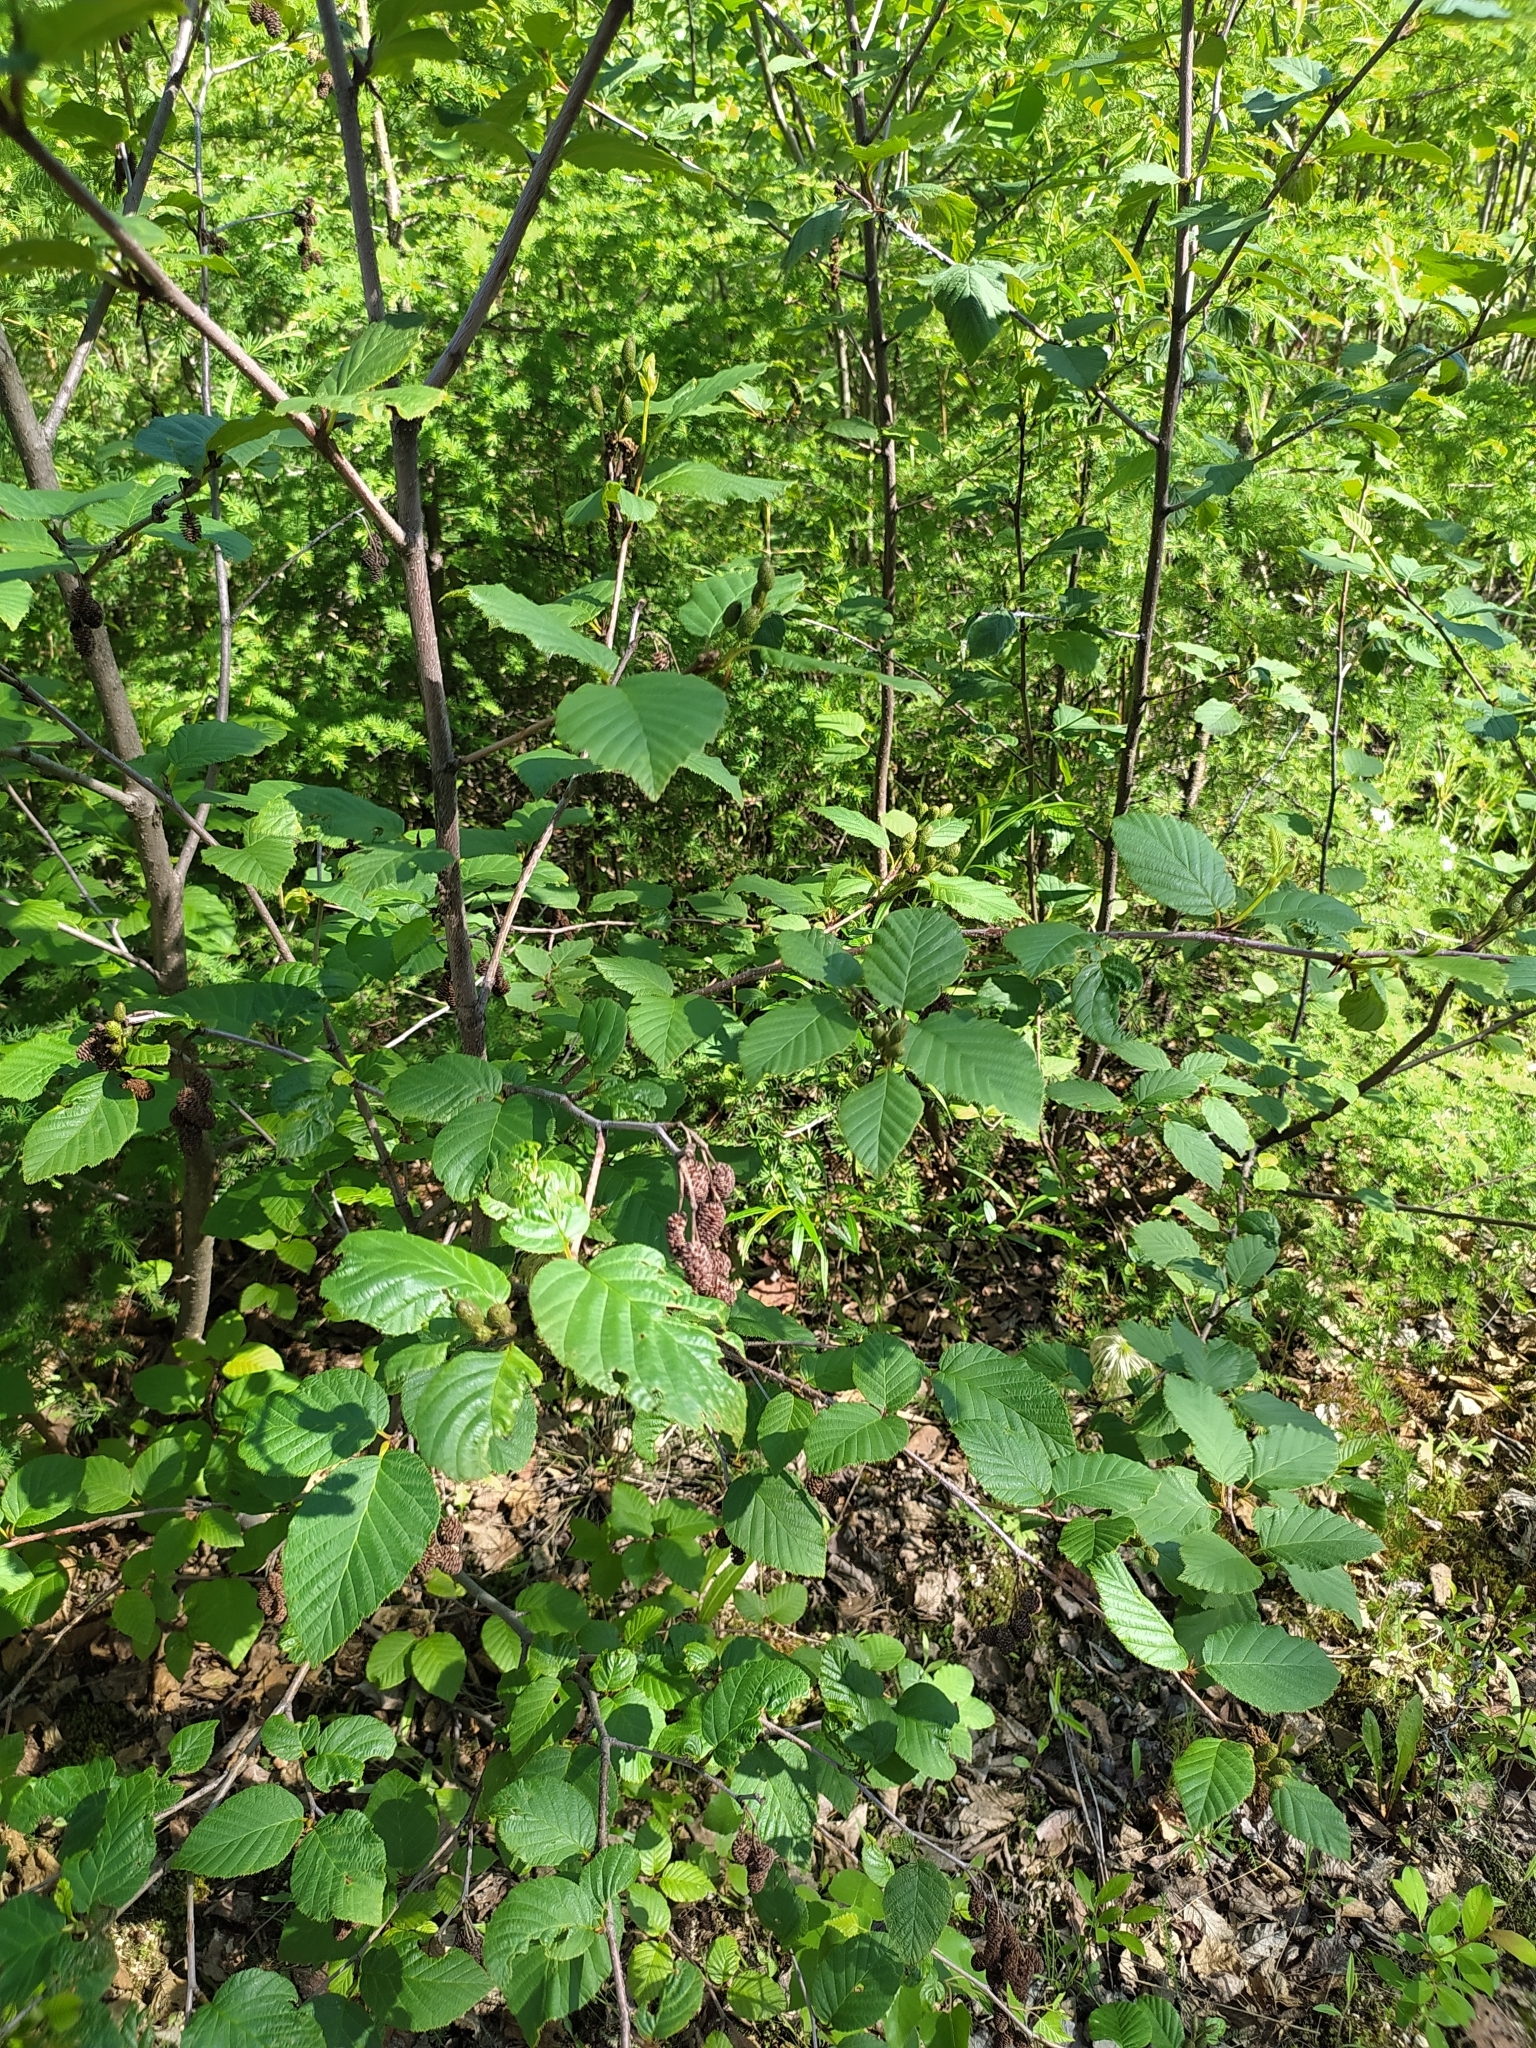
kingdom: Plantae
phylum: Tracheophyta
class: Magnoliopsida
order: Fagales
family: Betulaceae
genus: Alnus
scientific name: Alnus alnobetula
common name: Green alder
